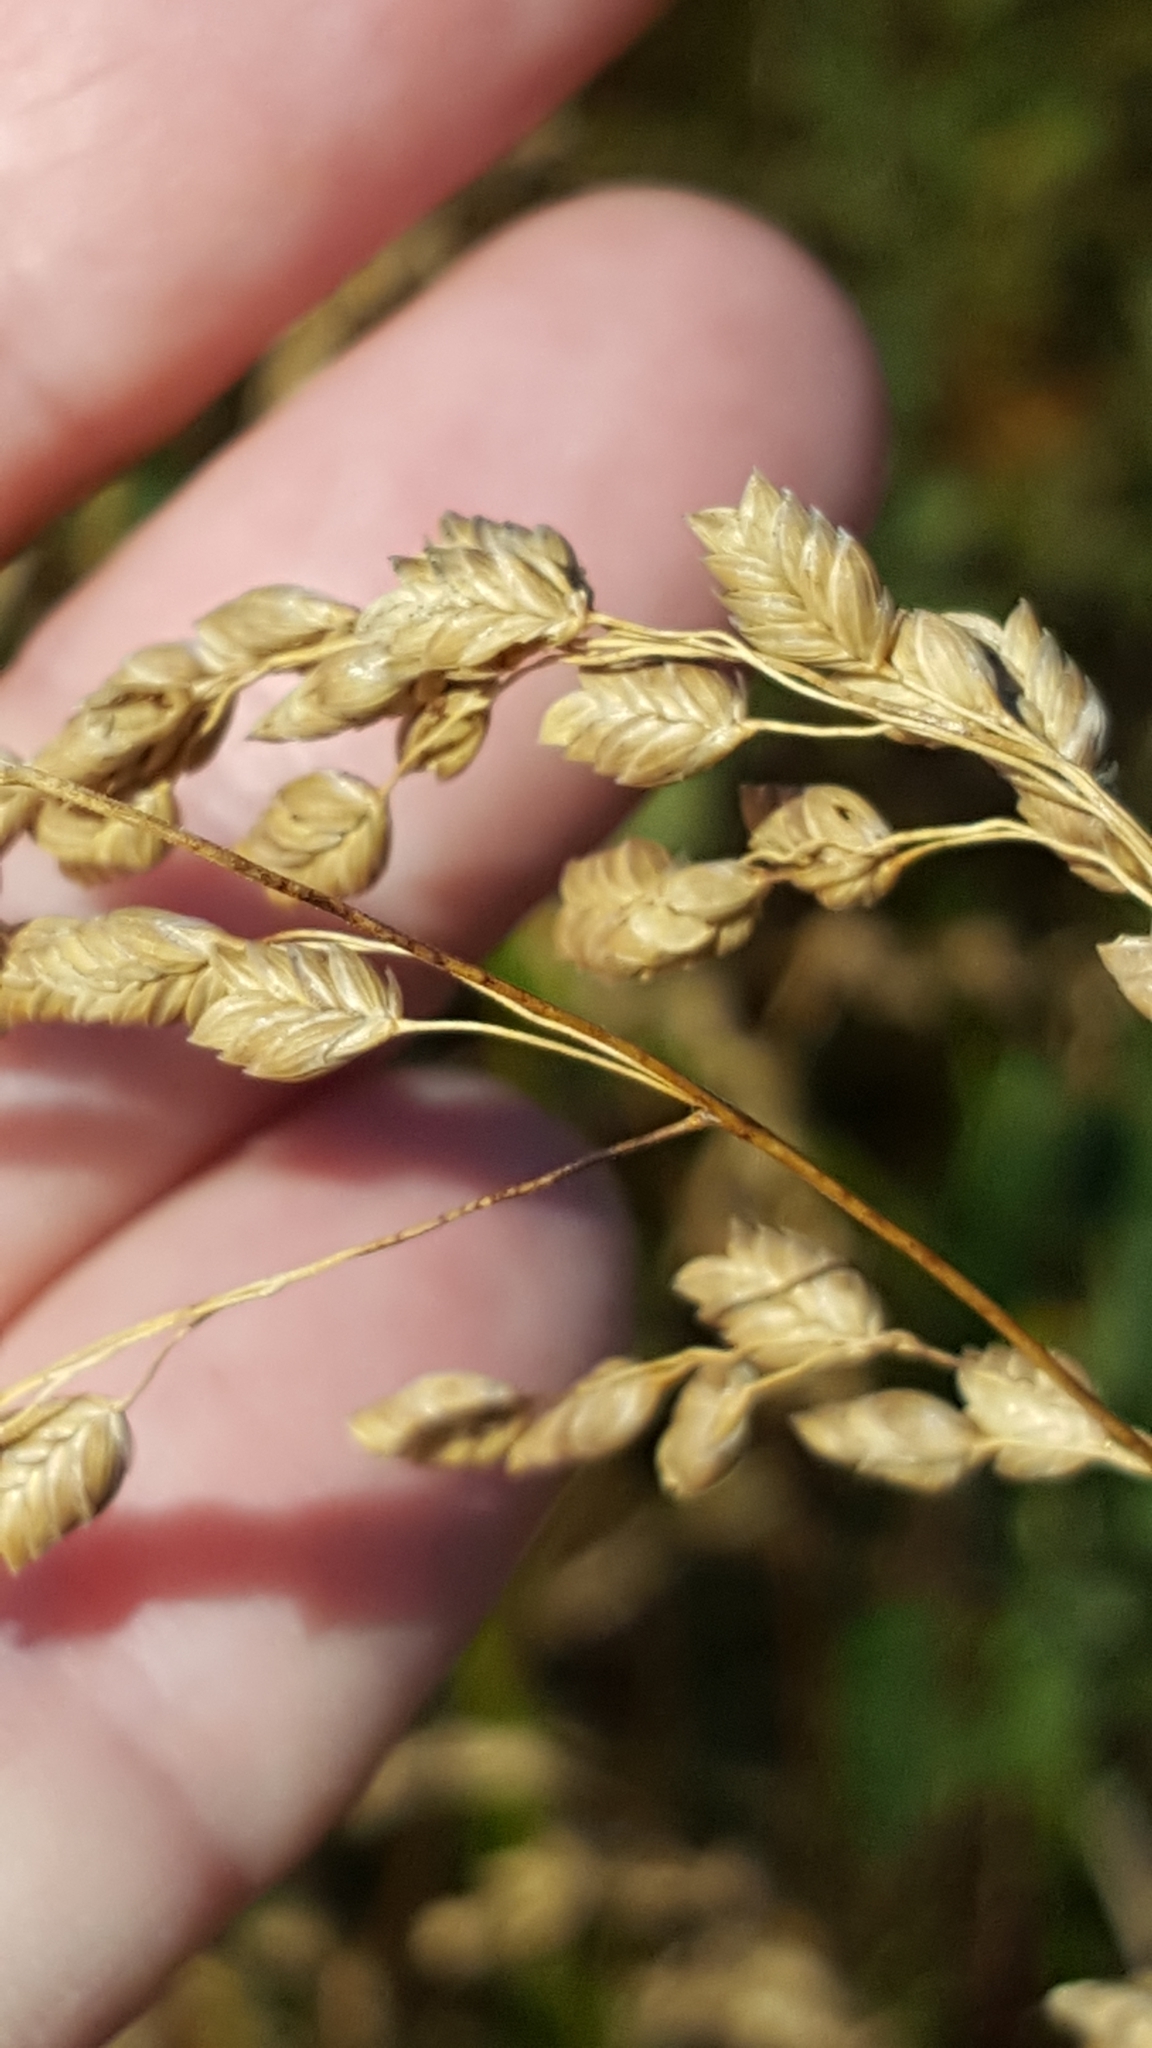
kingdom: Plantae
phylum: Tracheophyta
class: Liliopsida
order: Poales
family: Poaceae
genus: Glyceria
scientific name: Glyceria canadensis
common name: Canada mannagrass
